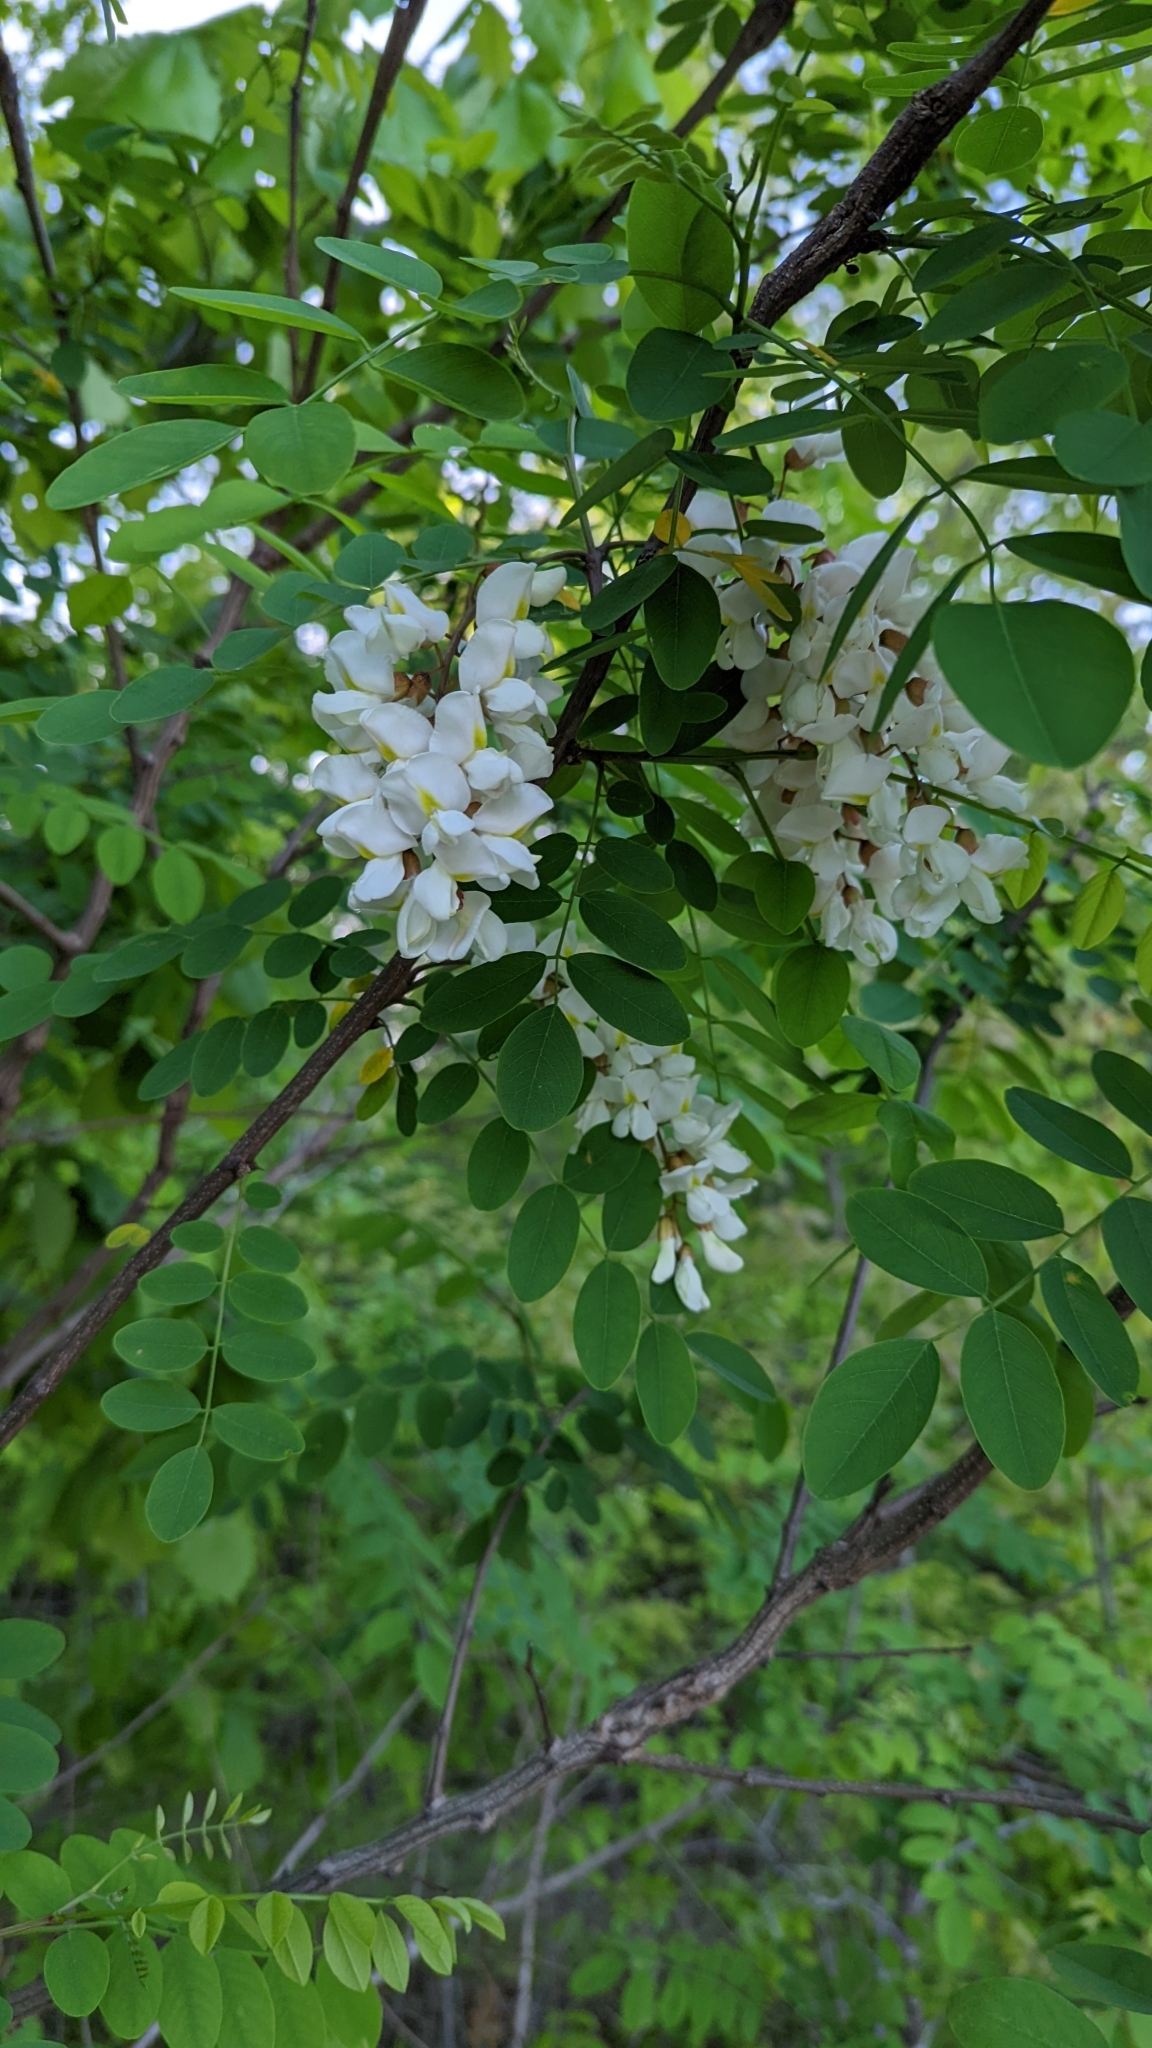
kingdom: Plantae
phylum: Tracheophyta
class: Magnoliopsida
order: Fabales
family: Fabaceae
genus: Robinia
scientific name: Robinia pseudoacacia
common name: Black locust
